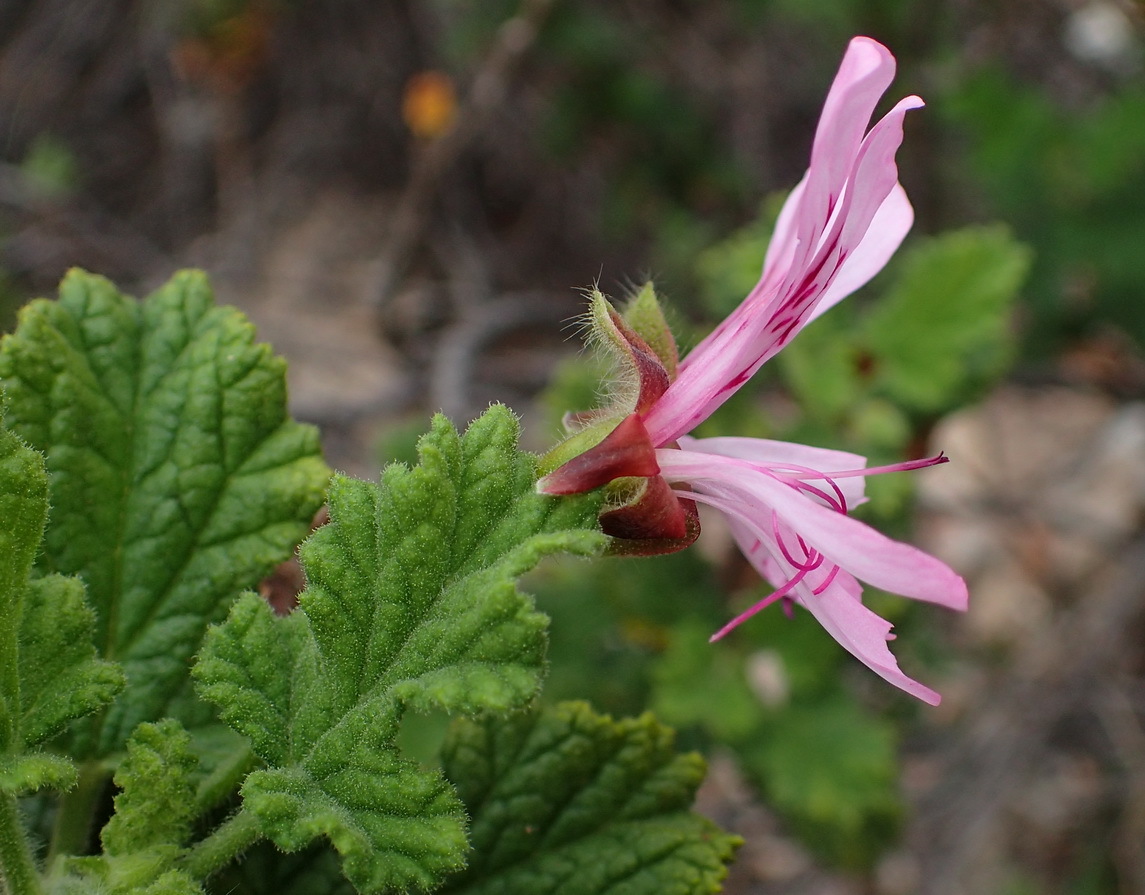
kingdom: Plantae
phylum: Tracheophyta
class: Magnoliopsida
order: Geraniales
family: Geraniaceae
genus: Pelargonium
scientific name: Pelargonium panduriforme
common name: Oakleaf garden geranium
